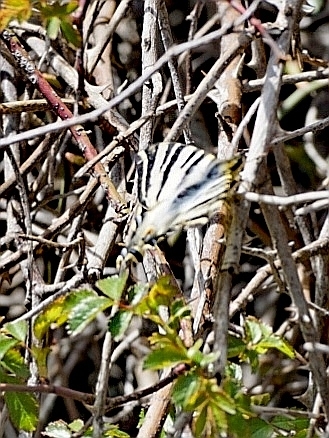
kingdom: Animalia
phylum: Arthropoda
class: Insecta
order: Lepidoptera
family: Papilionidae
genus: Iphiclides
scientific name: Iphiclides feisthamelii
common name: Iberian scarce swallowtail
